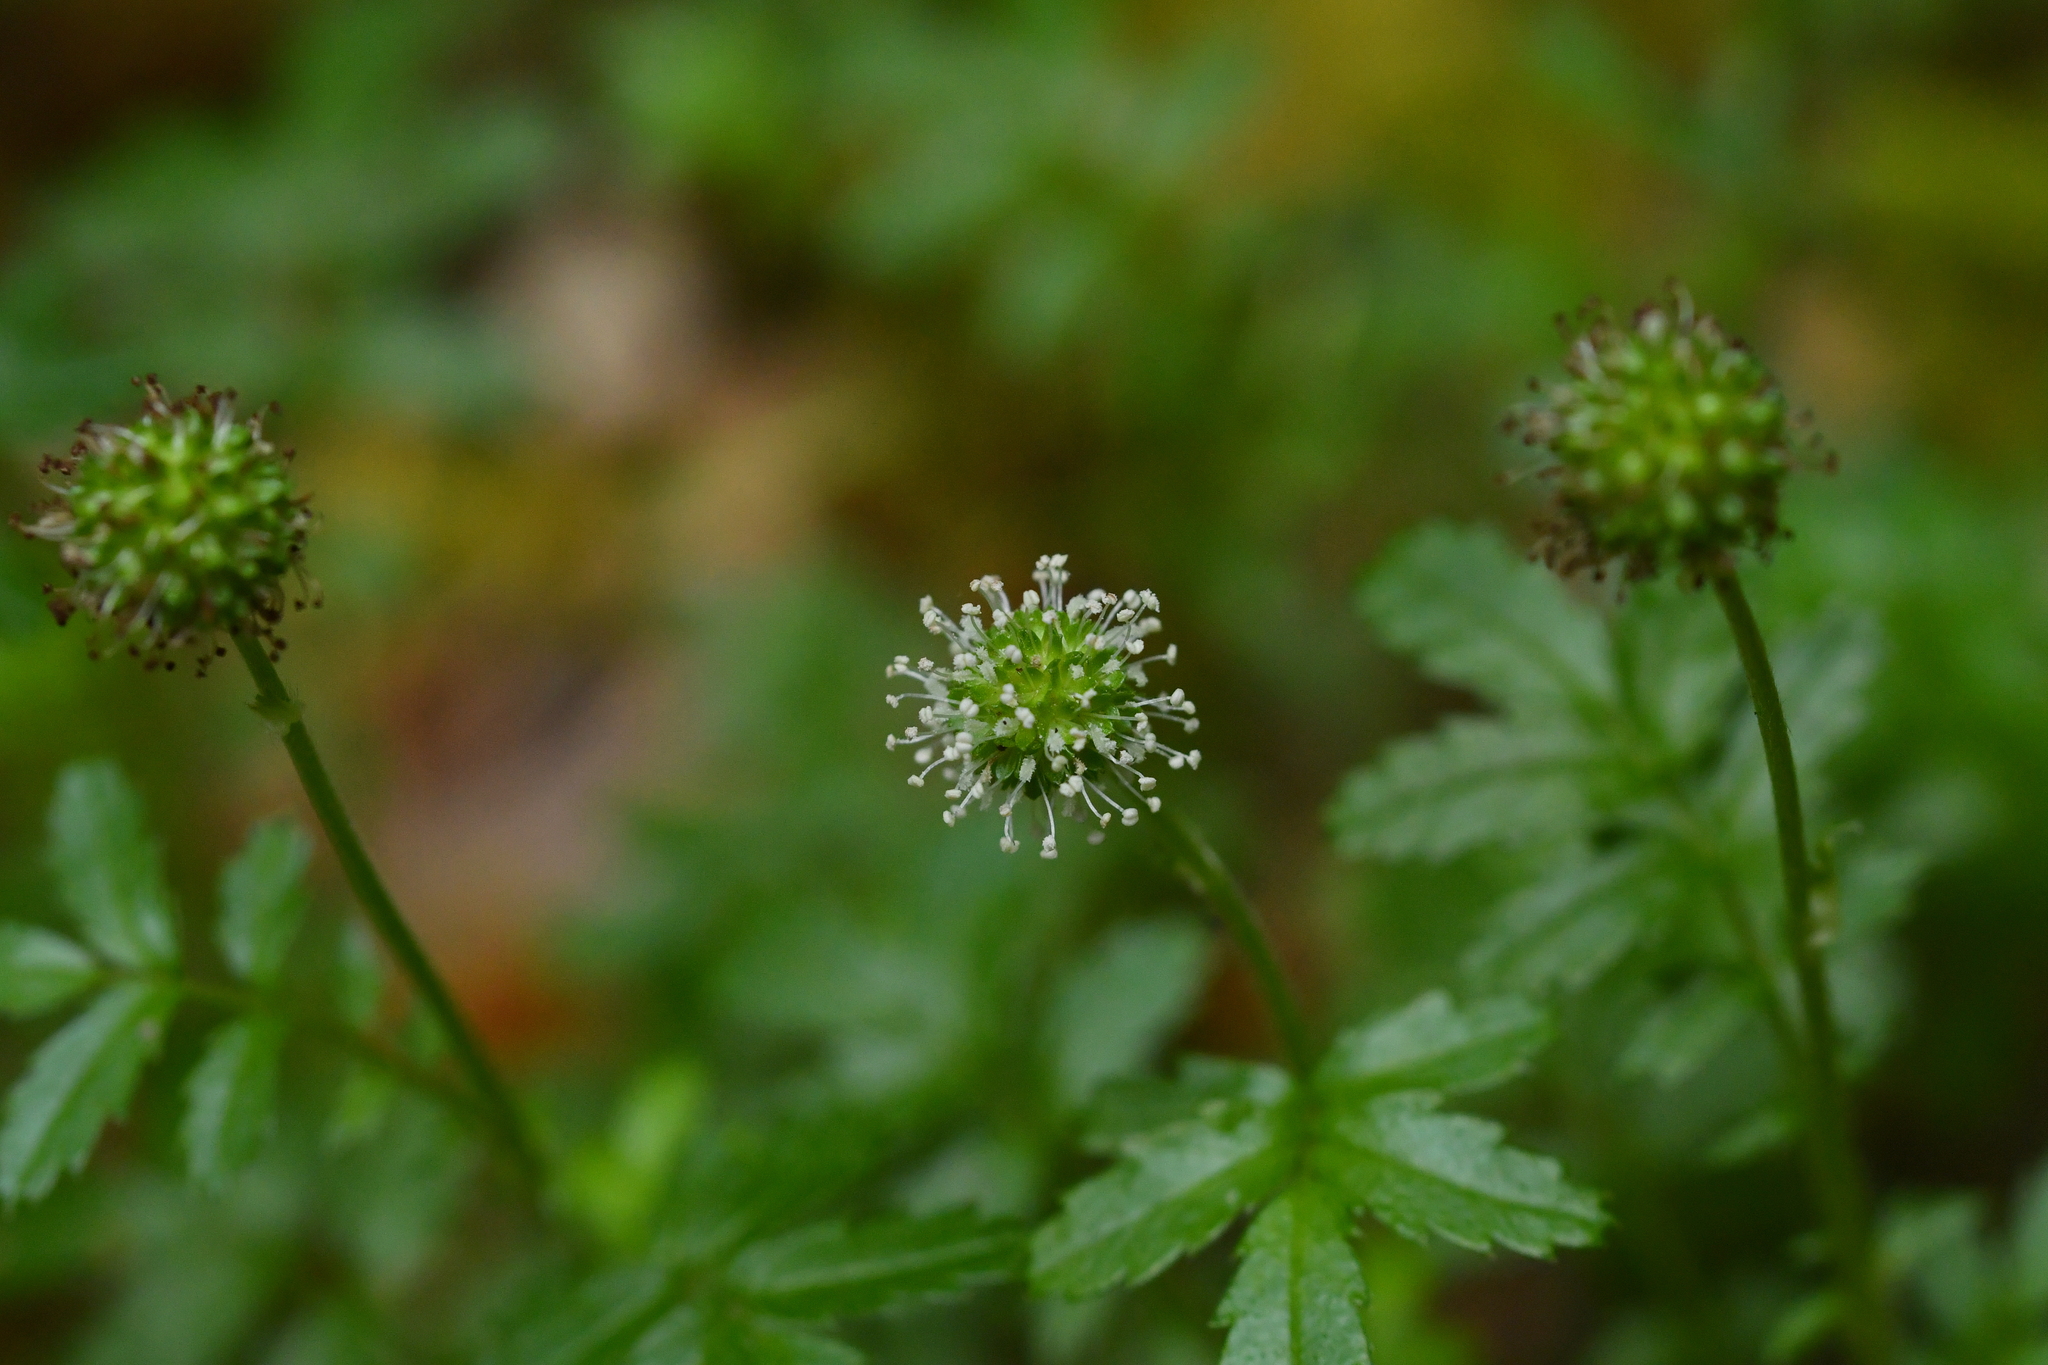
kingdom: Plantae
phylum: Tracheophyta
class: Magnoliopsida
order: Rosales
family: Rosaceae
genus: Acaena
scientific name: Acaena anserinifolia
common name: Bronze pirri-pirri-bur
